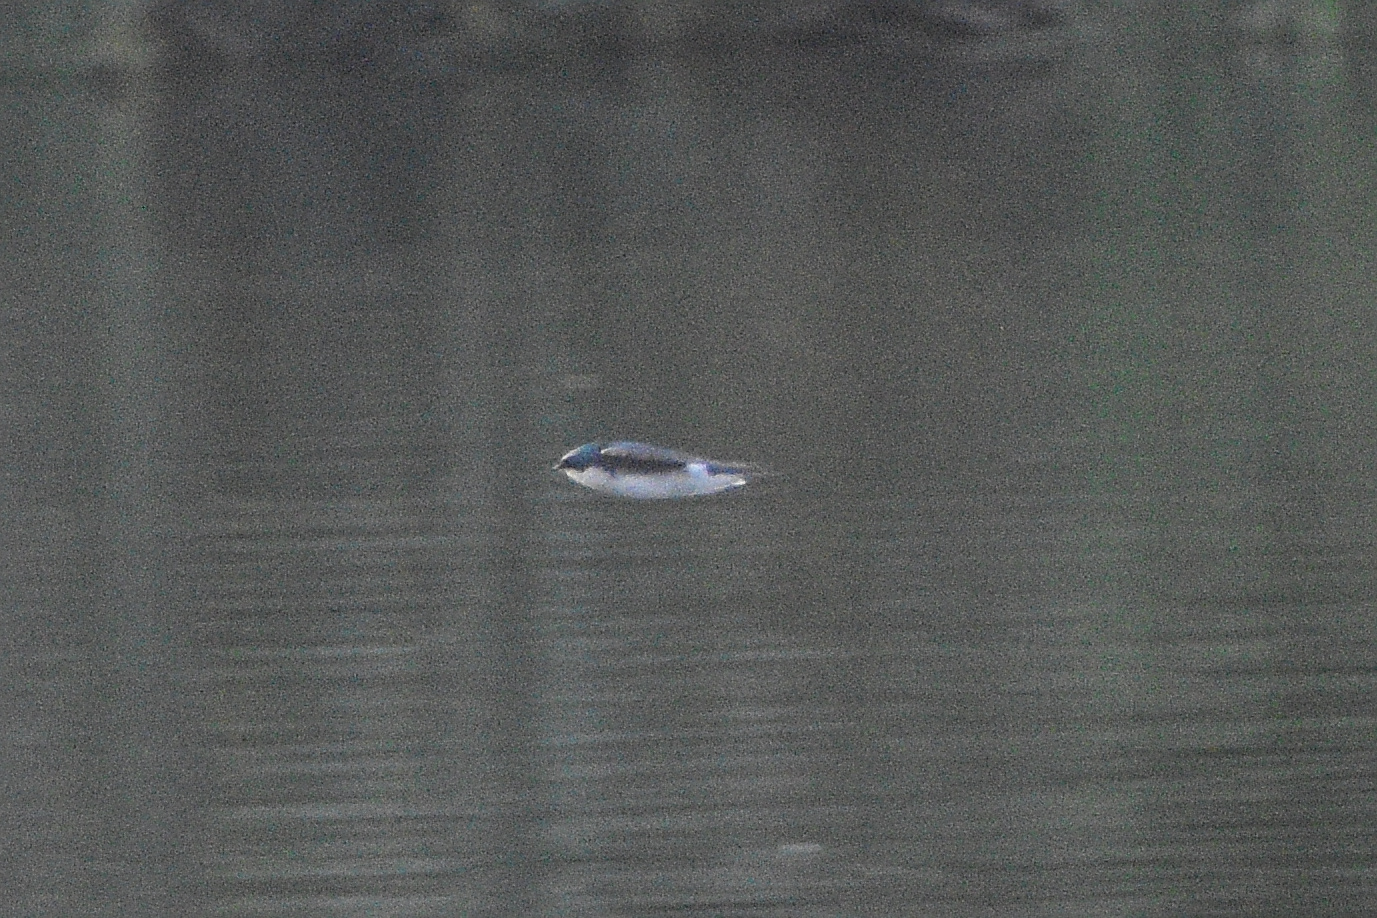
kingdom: Animalia
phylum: Chordata
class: Aves
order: Passeriformes
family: Hirundinidae
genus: Tachycineta
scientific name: Tachycineta bicolor
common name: Tree swallow
